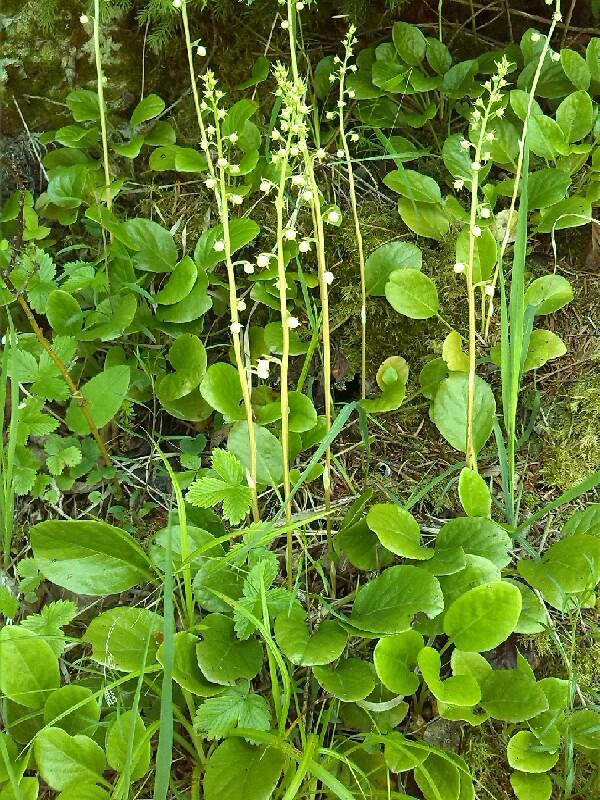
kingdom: Plantae
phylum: Tracheophyta
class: Magnoliopsida
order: Ericales
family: Ericaceae
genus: Pyrola
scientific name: Pyrola rotundifolia
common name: Round-leaved wintergreen
